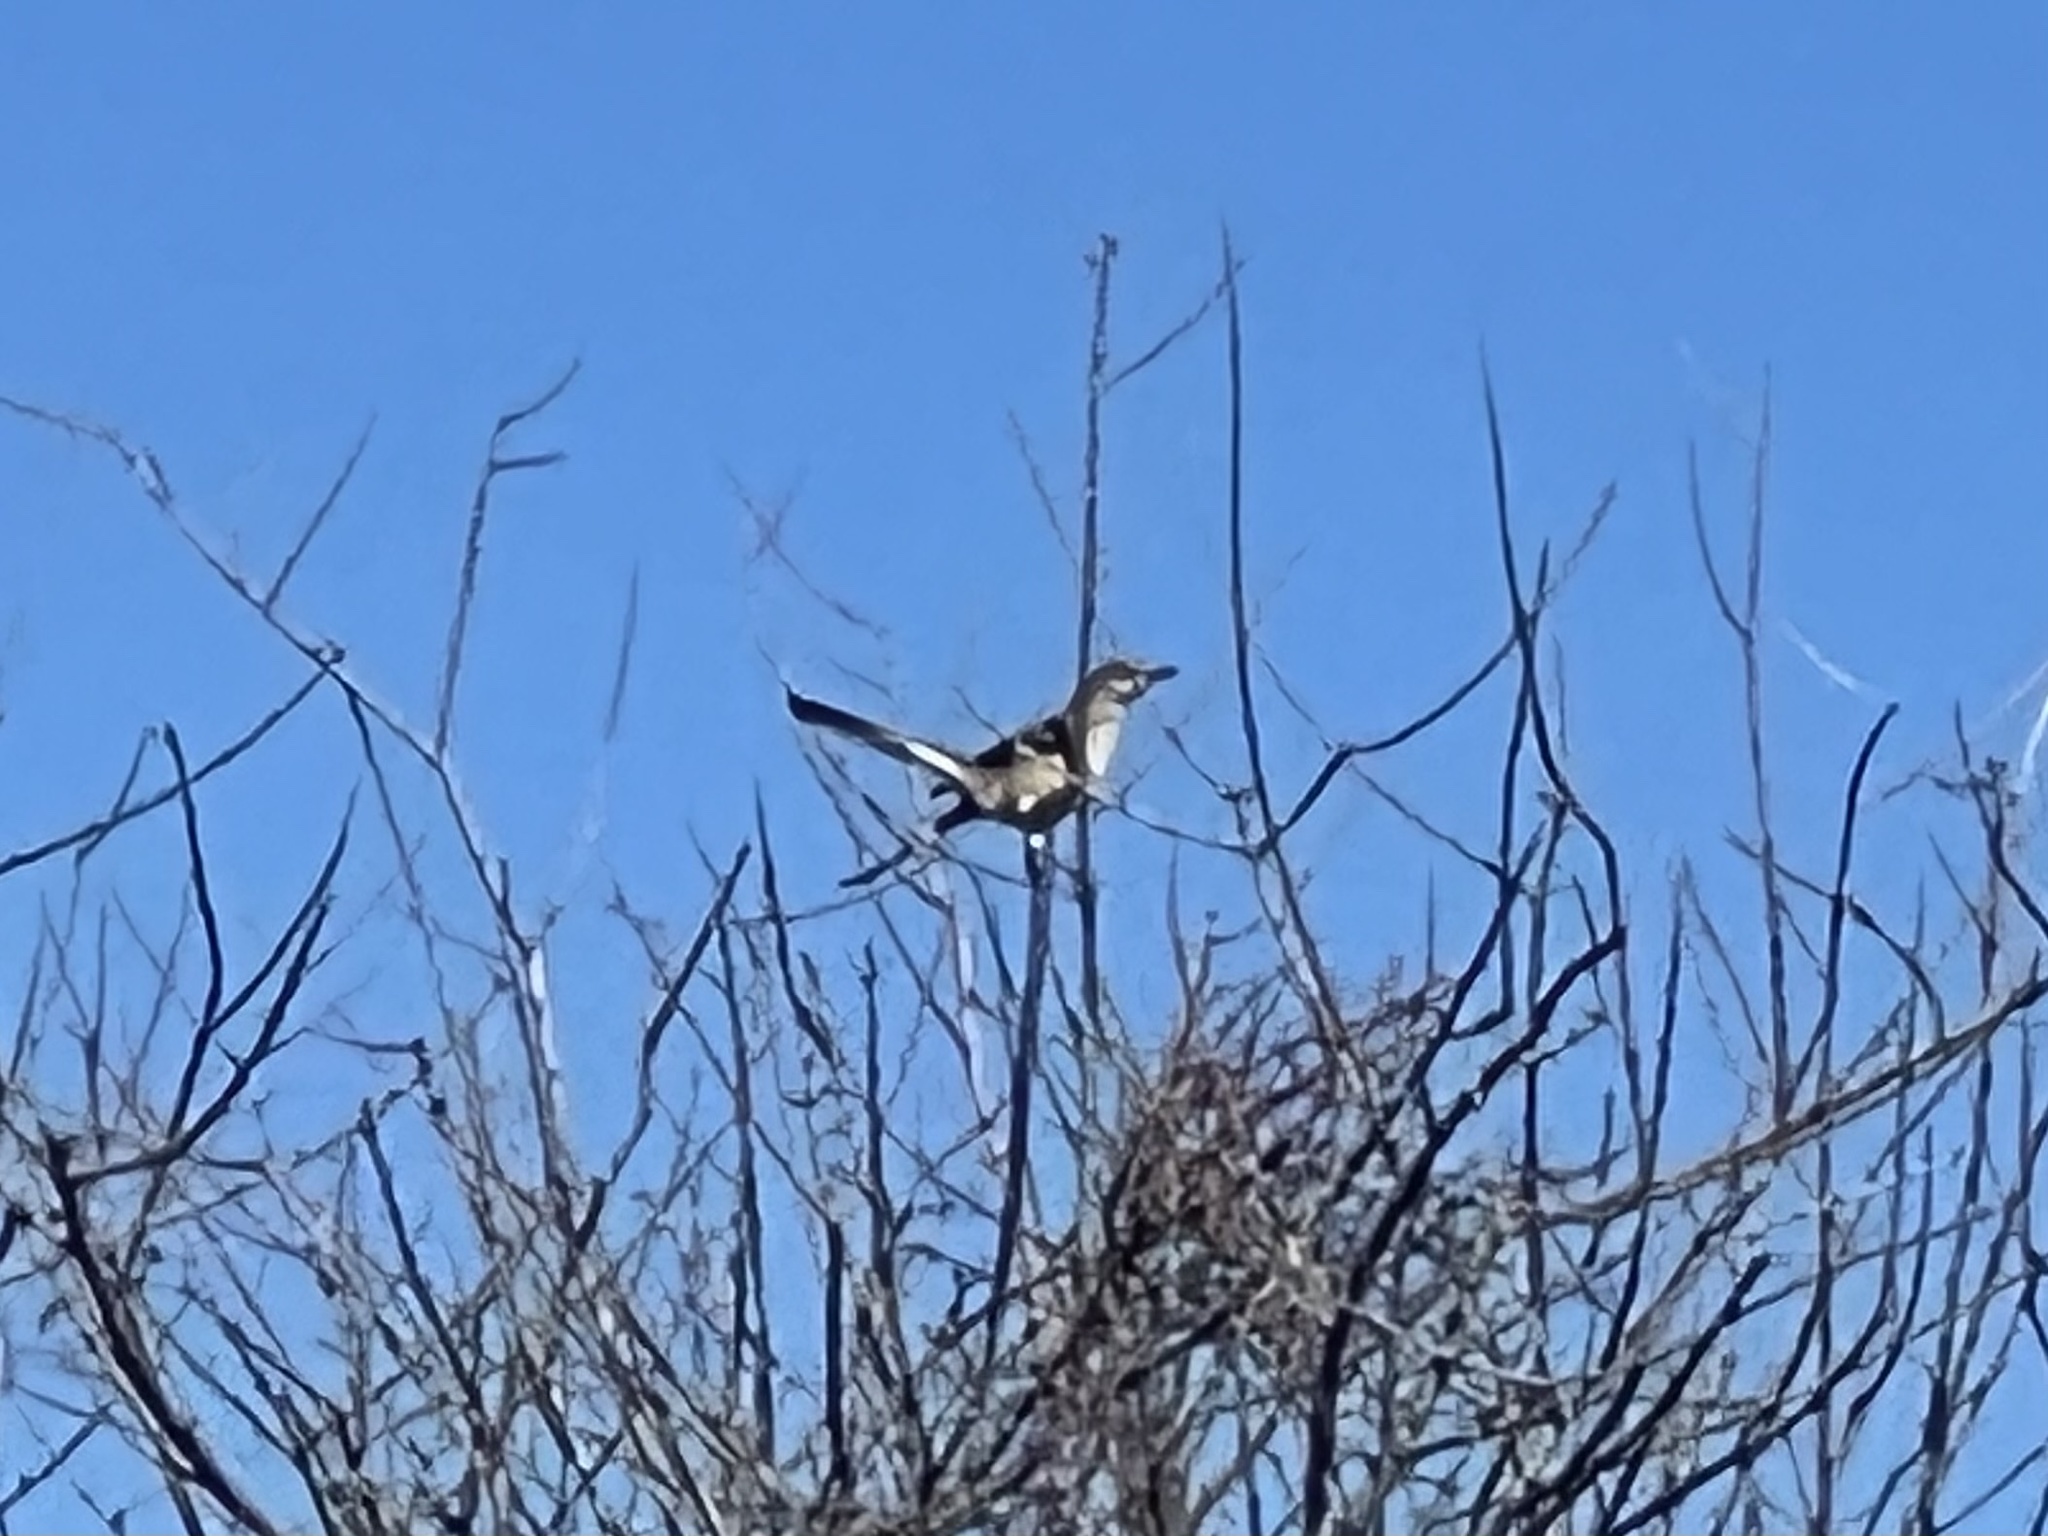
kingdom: Animalia
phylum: Chordata
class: Aves
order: Passeriformes
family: Mimidae
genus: Mimus
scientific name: Mimus polyglottos
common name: Northern mockingbird
